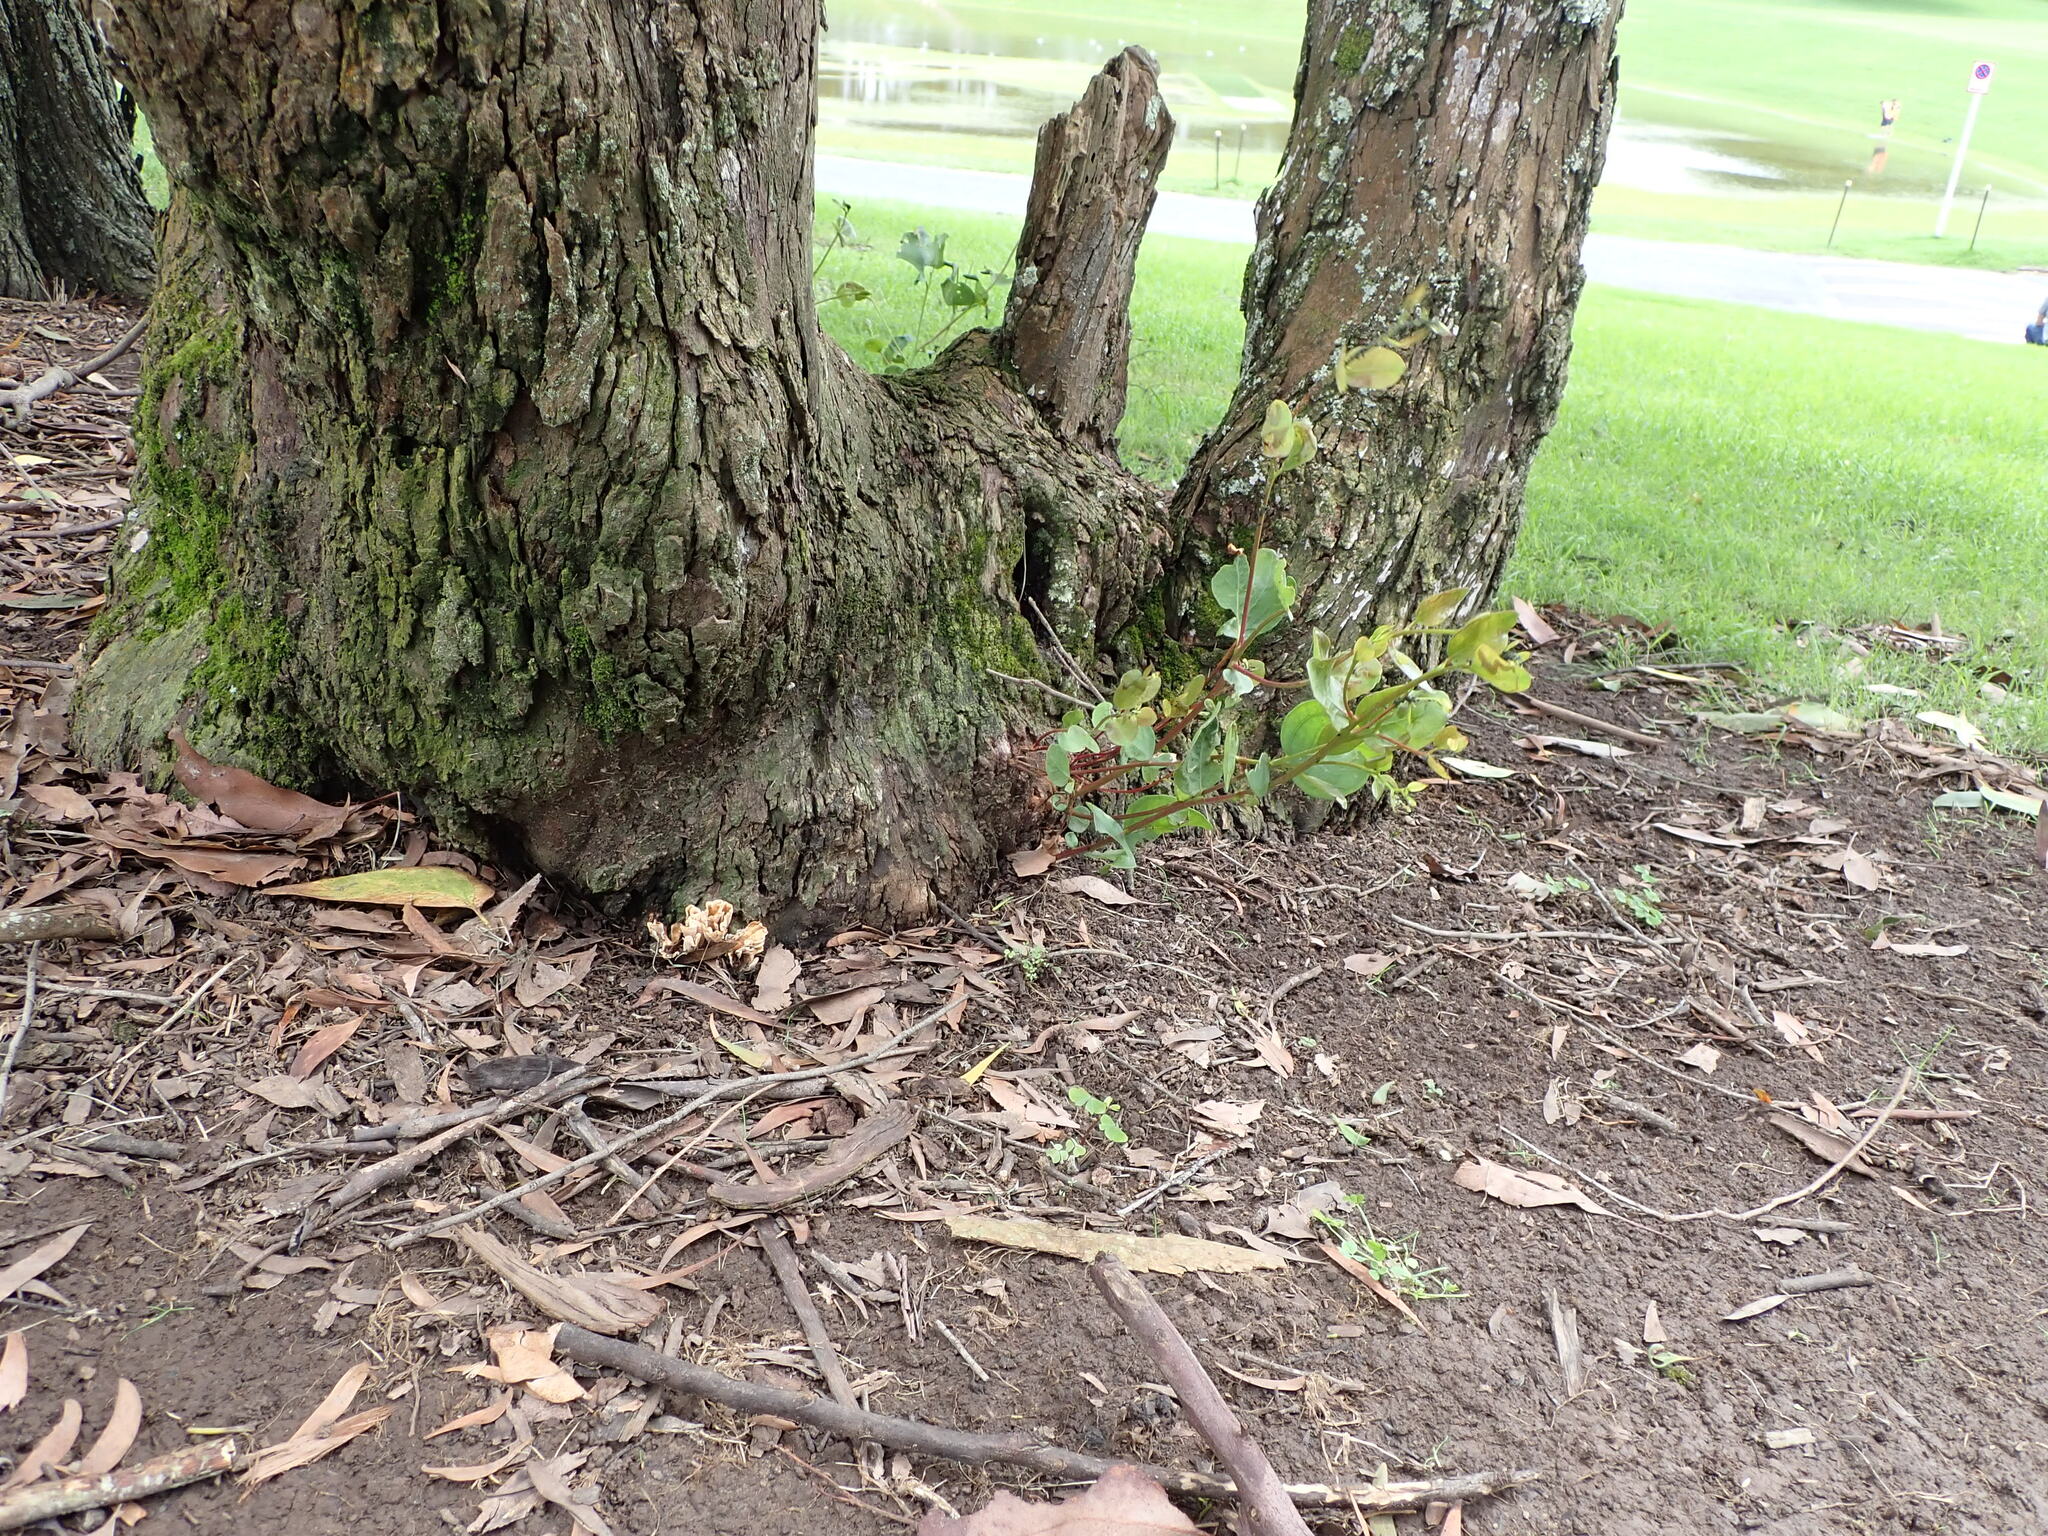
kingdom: Fungi
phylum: Basidiomycota
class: Agaricomycetes
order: Polyporales
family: Podoscyphaceae
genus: Podoscypha
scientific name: Podoscypha petalodes
